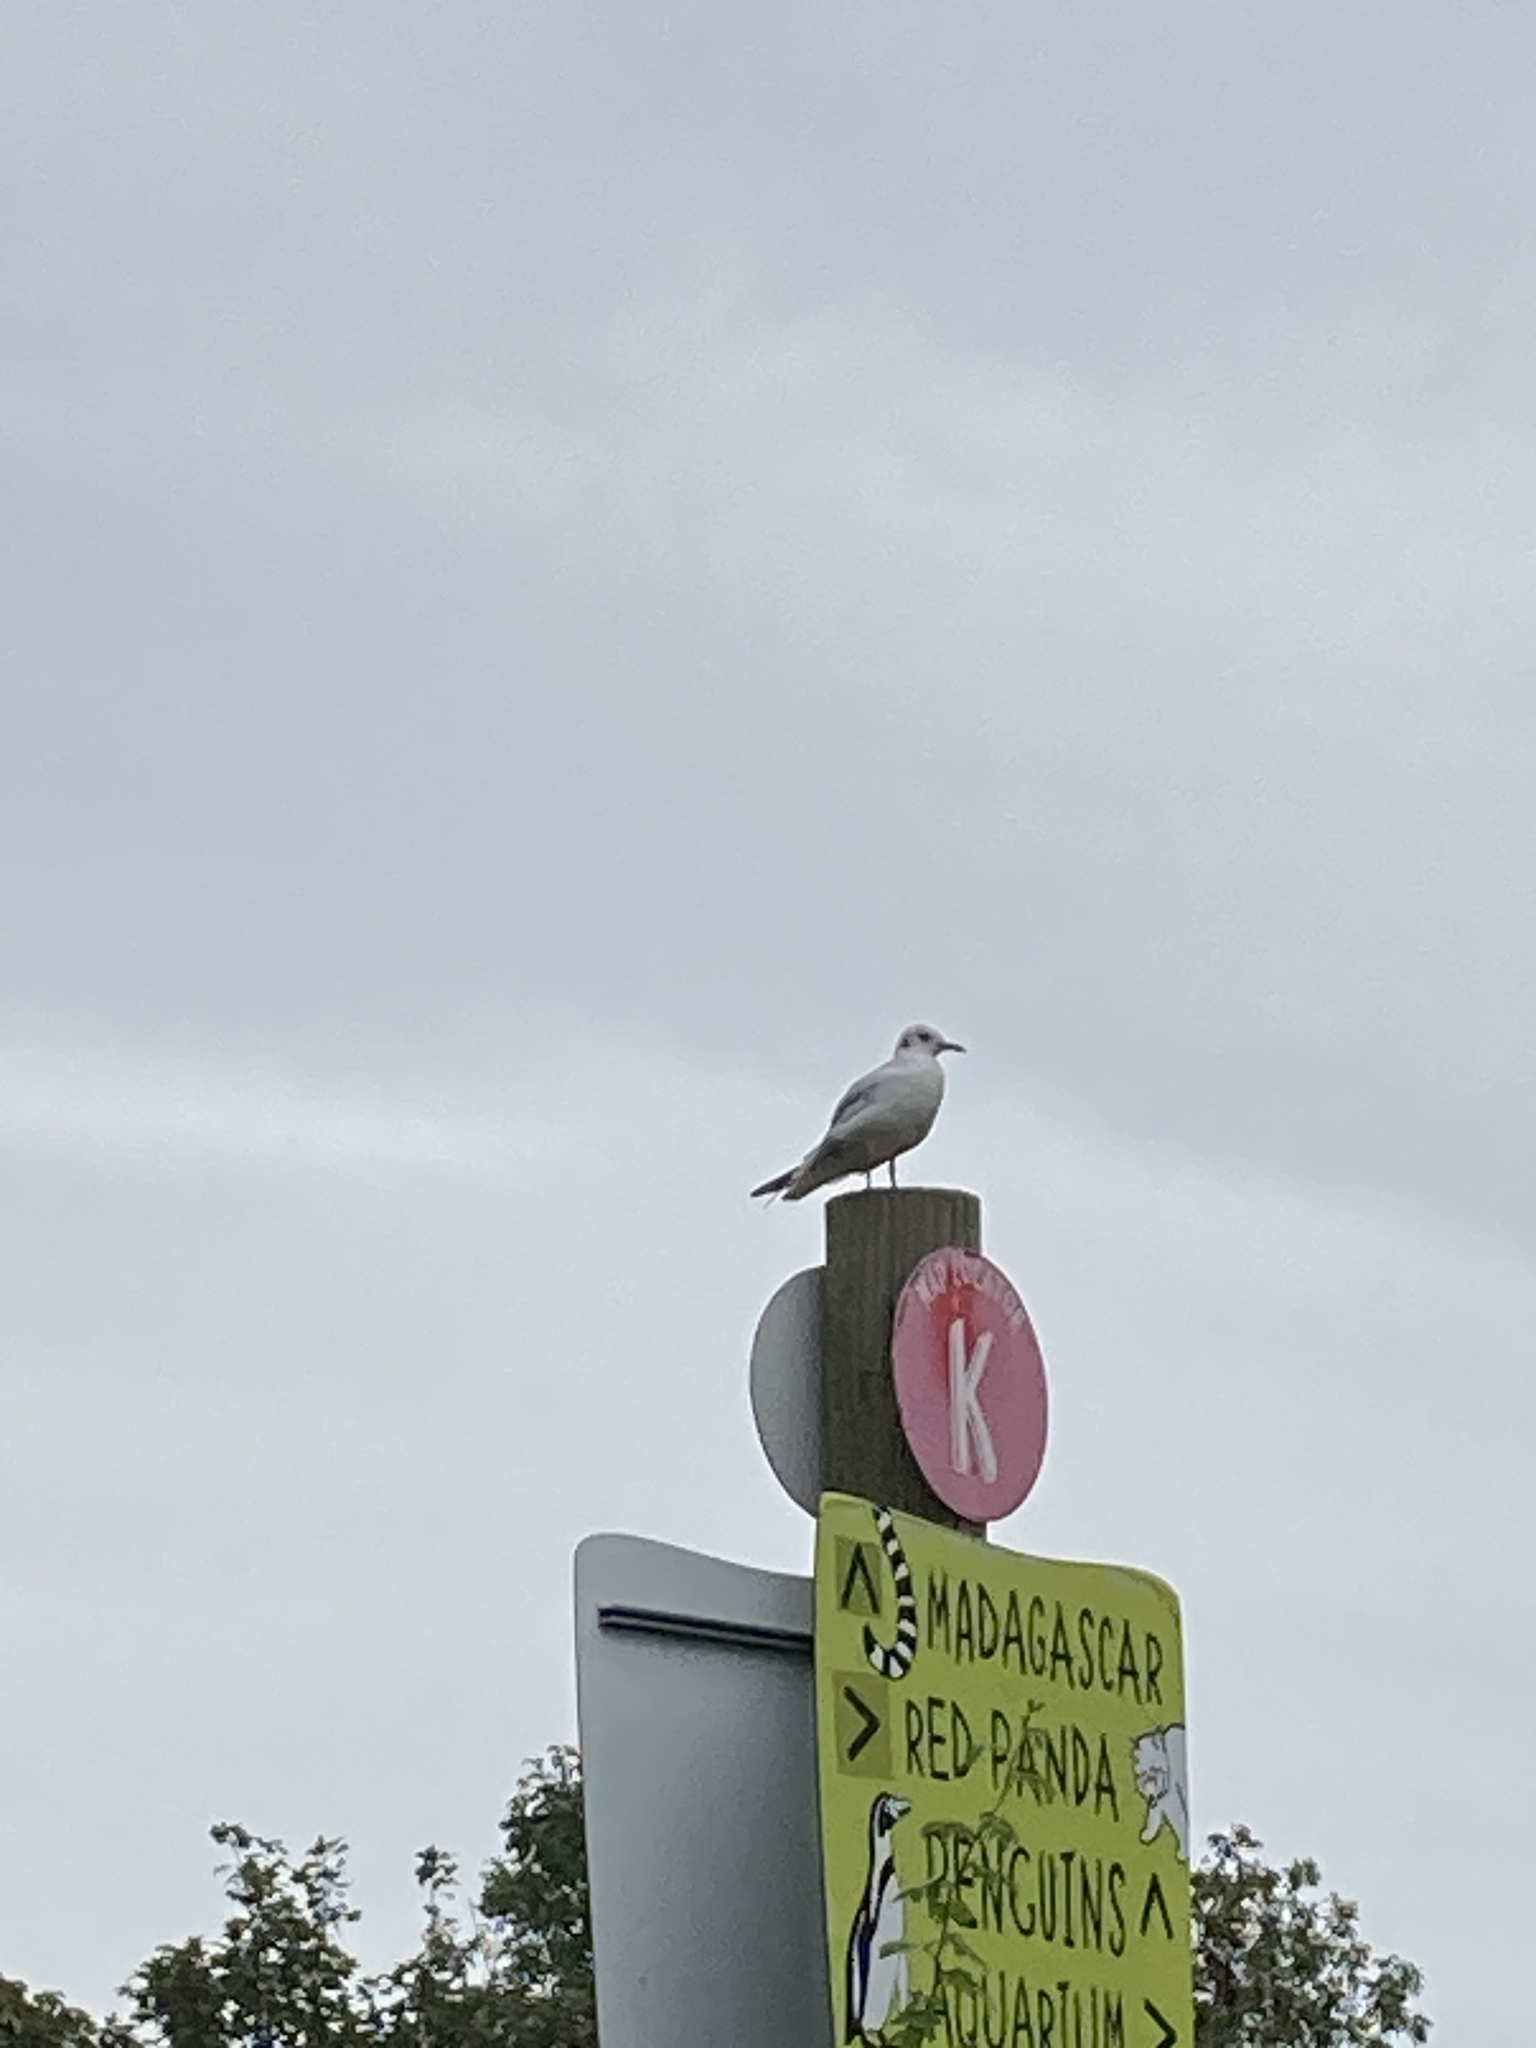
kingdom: Animalia
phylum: Chordata
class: Aves
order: Charadriiformes
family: Laridae
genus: Chroicocephalus
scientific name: Chroicocephalus ridibundus
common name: Black-headed gull
